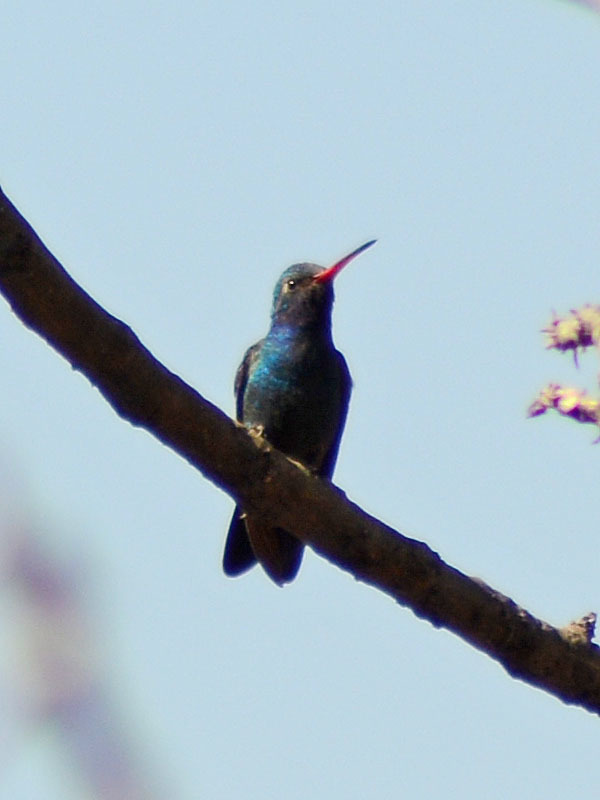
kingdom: Animalia
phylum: Chordata
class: Aves
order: Apodiformes
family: Trochilidae
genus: Cynanthus
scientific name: Cynanthus latirostris
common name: Broad-billed hummingbird
